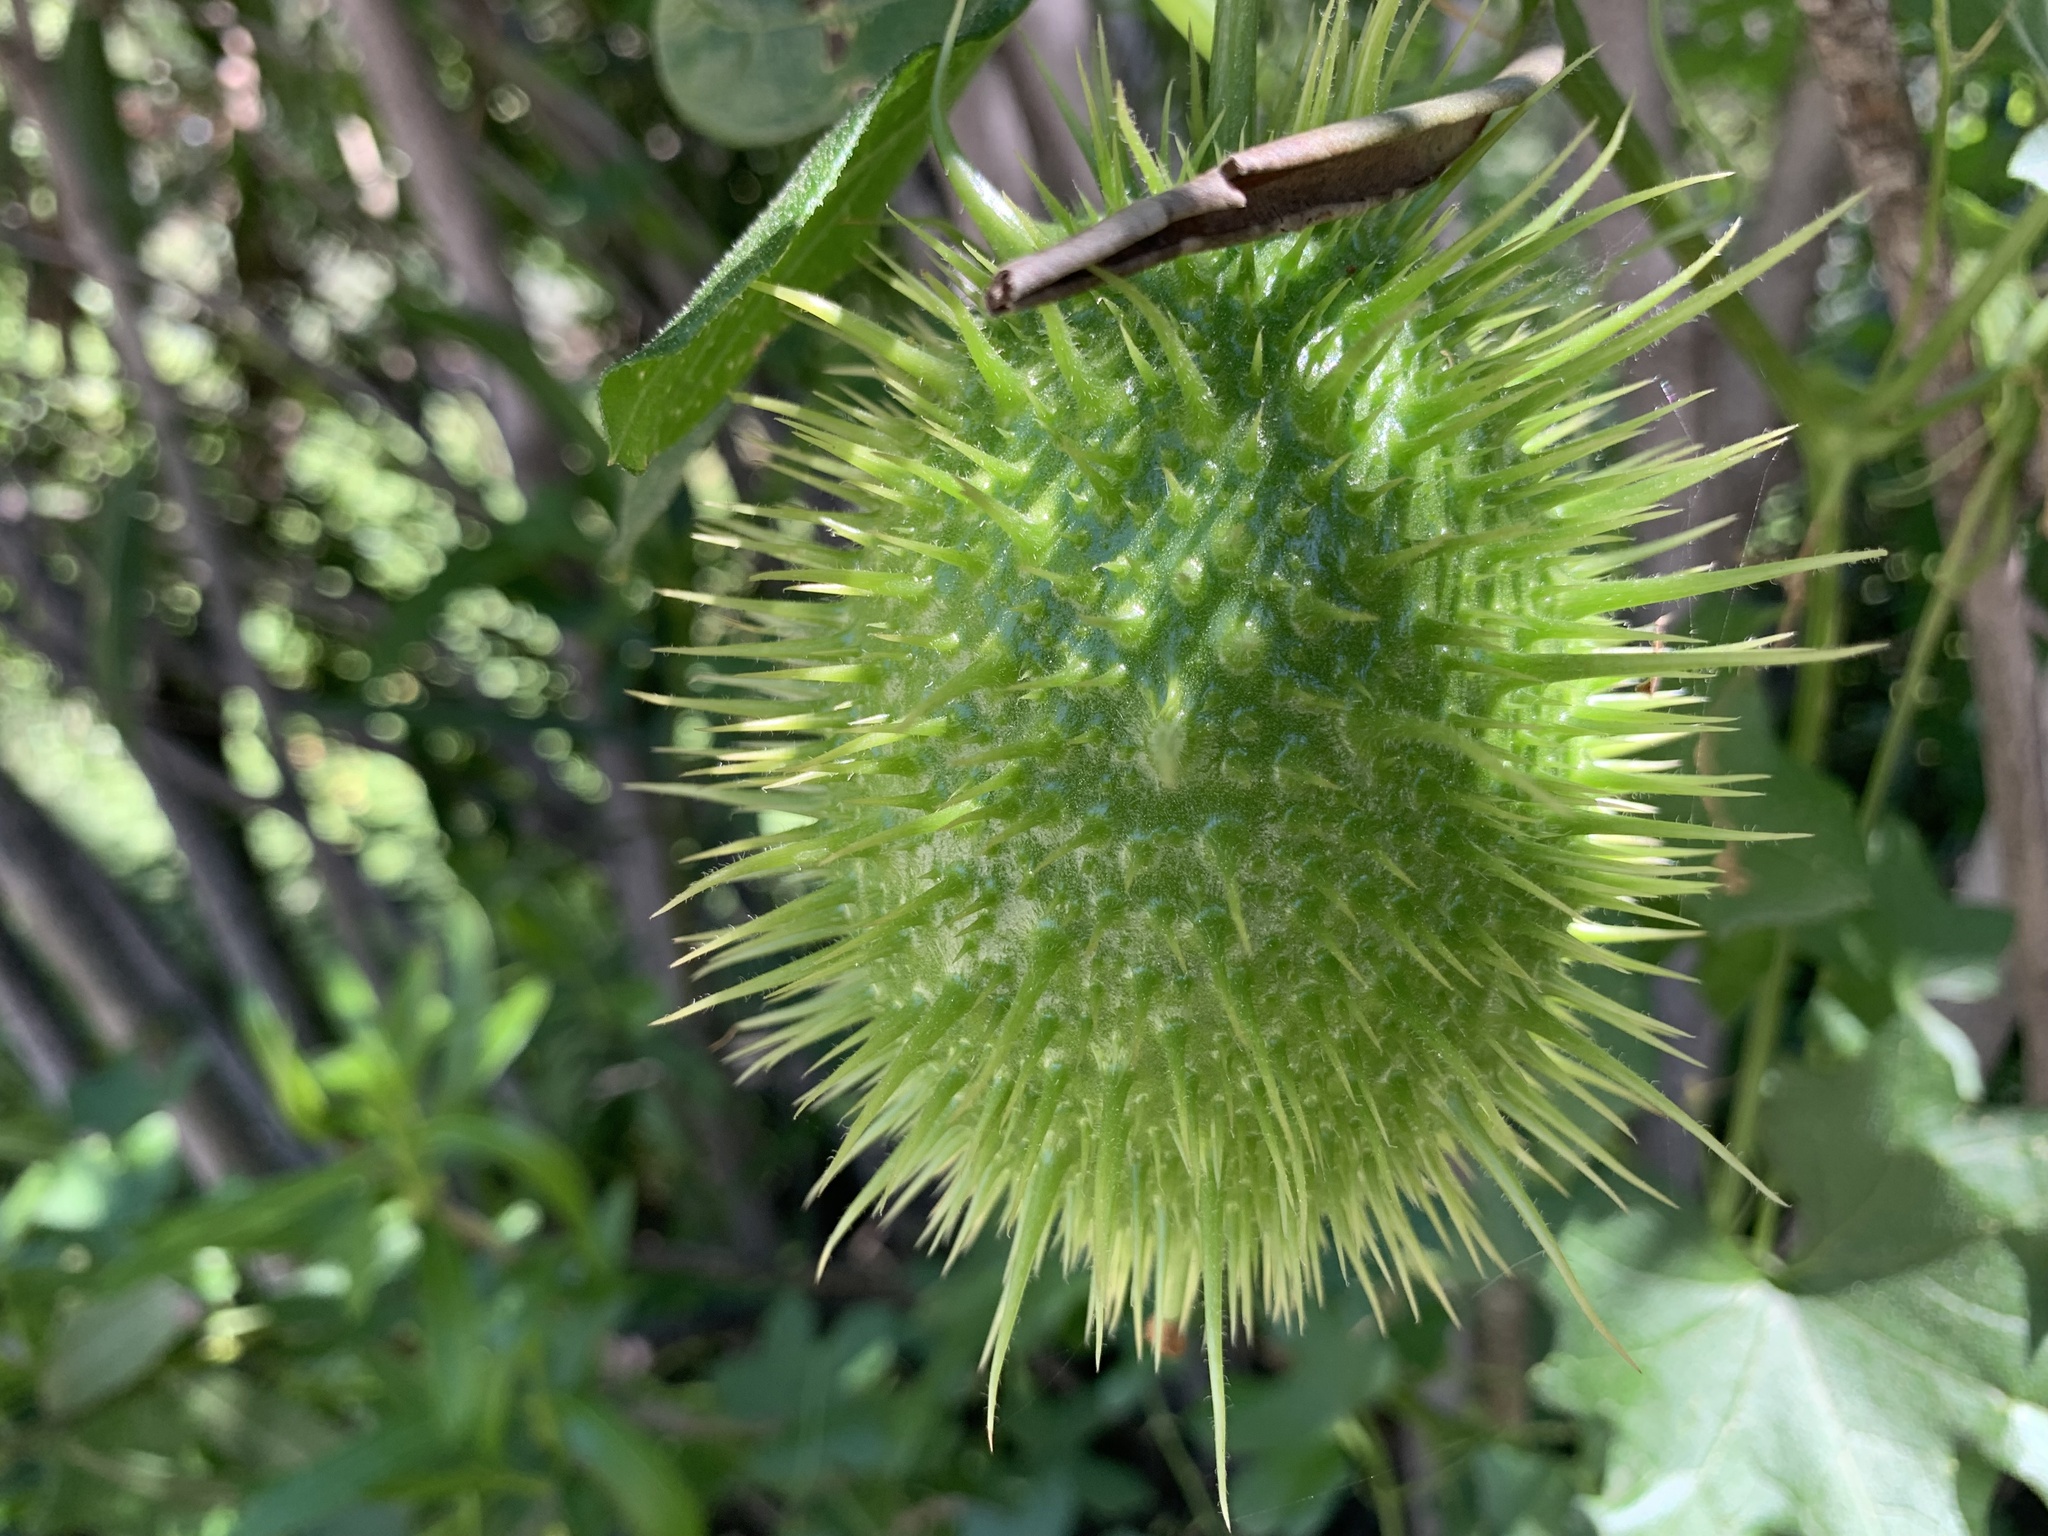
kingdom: Plantae
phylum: Tracheophyta
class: Magnoliopsida
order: Cucurbitales
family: Cucurbitaceae
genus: Marah
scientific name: Marah macrocarpa
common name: Cucamonga manroot
